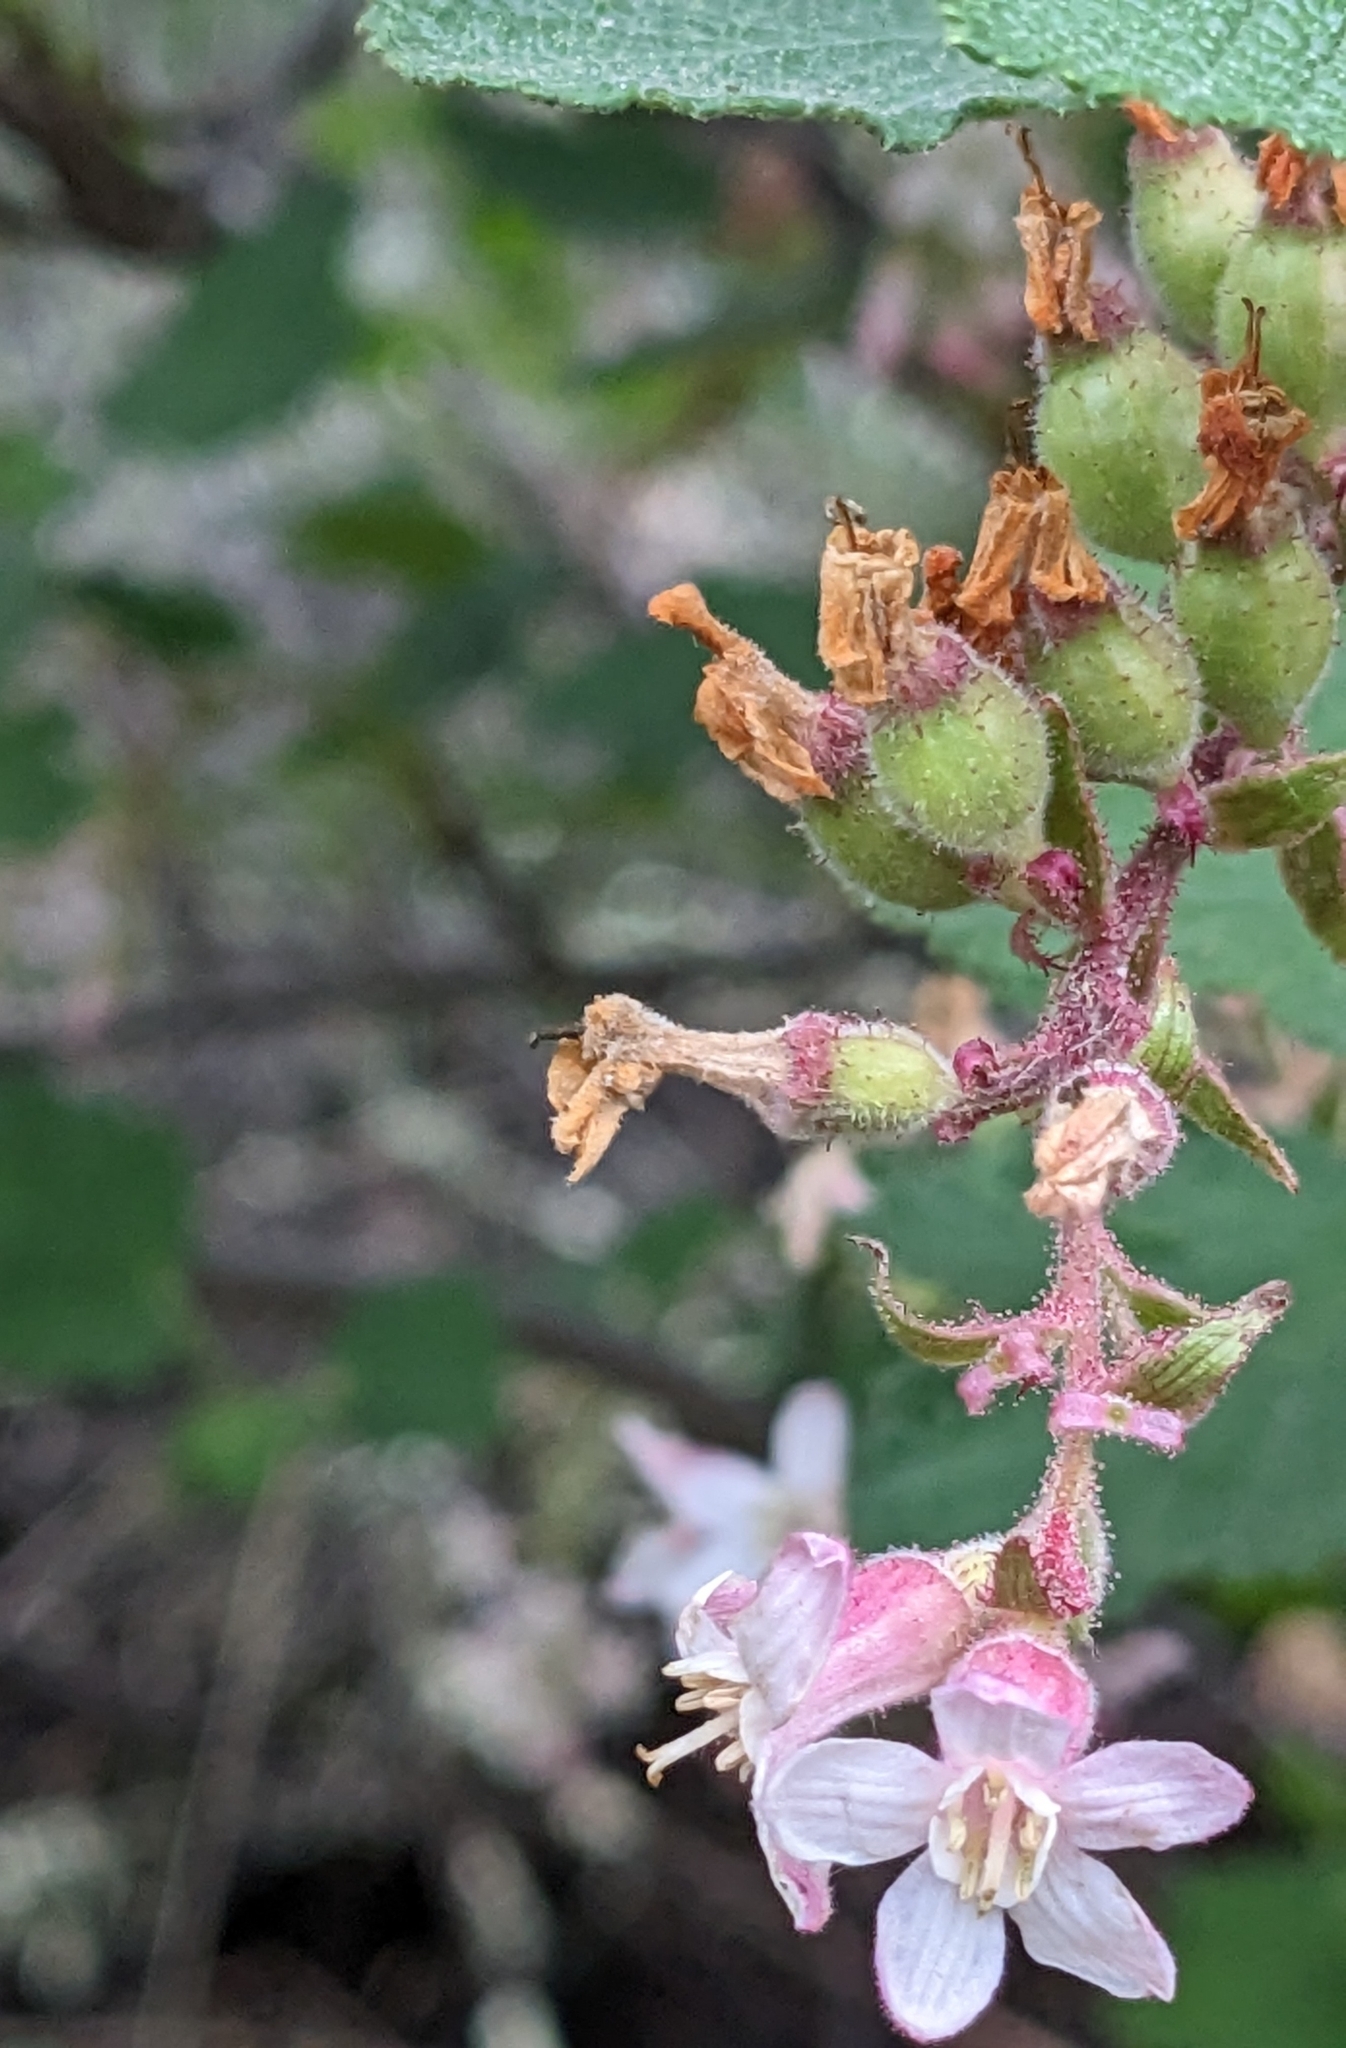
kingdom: Plantae
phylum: Tracheophyta
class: Magnoliopsida
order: Saxifragales
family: Grossulariaceae
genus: Ribes
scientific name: Ribes malvaceum
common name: Chaparral currant
